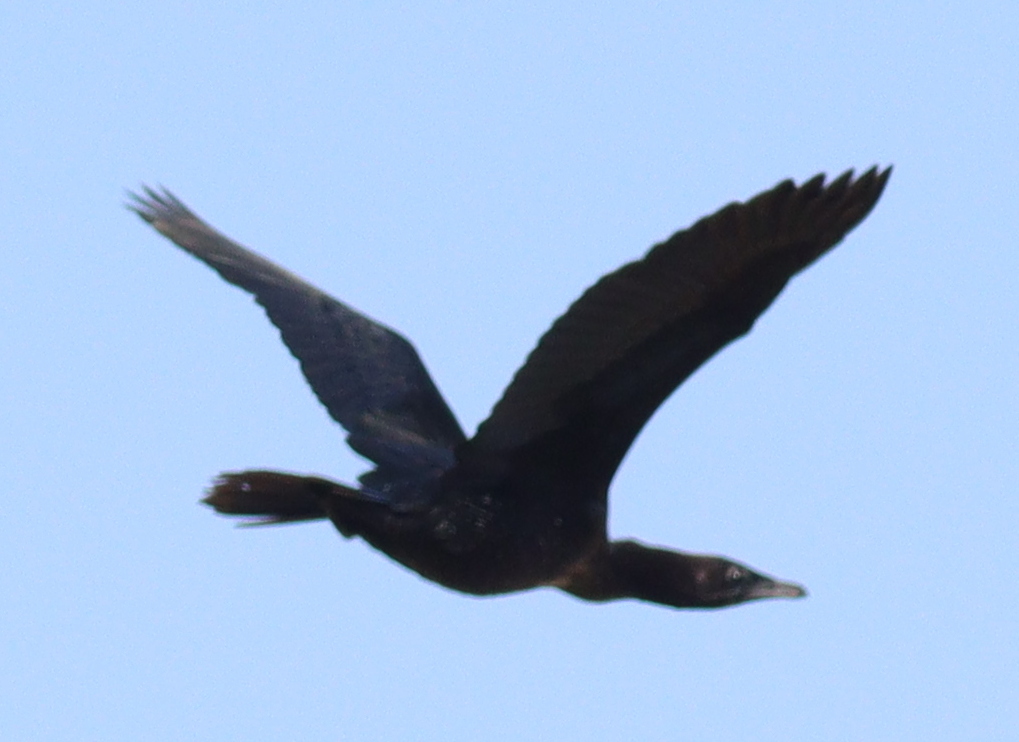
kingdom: Animalia
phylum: Chordata
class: Aves
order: Suliformes
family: Phalacrocoracidae
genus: Microcarbo
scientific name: Microcarbo pygmaeus
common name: Pygmy cormorant
